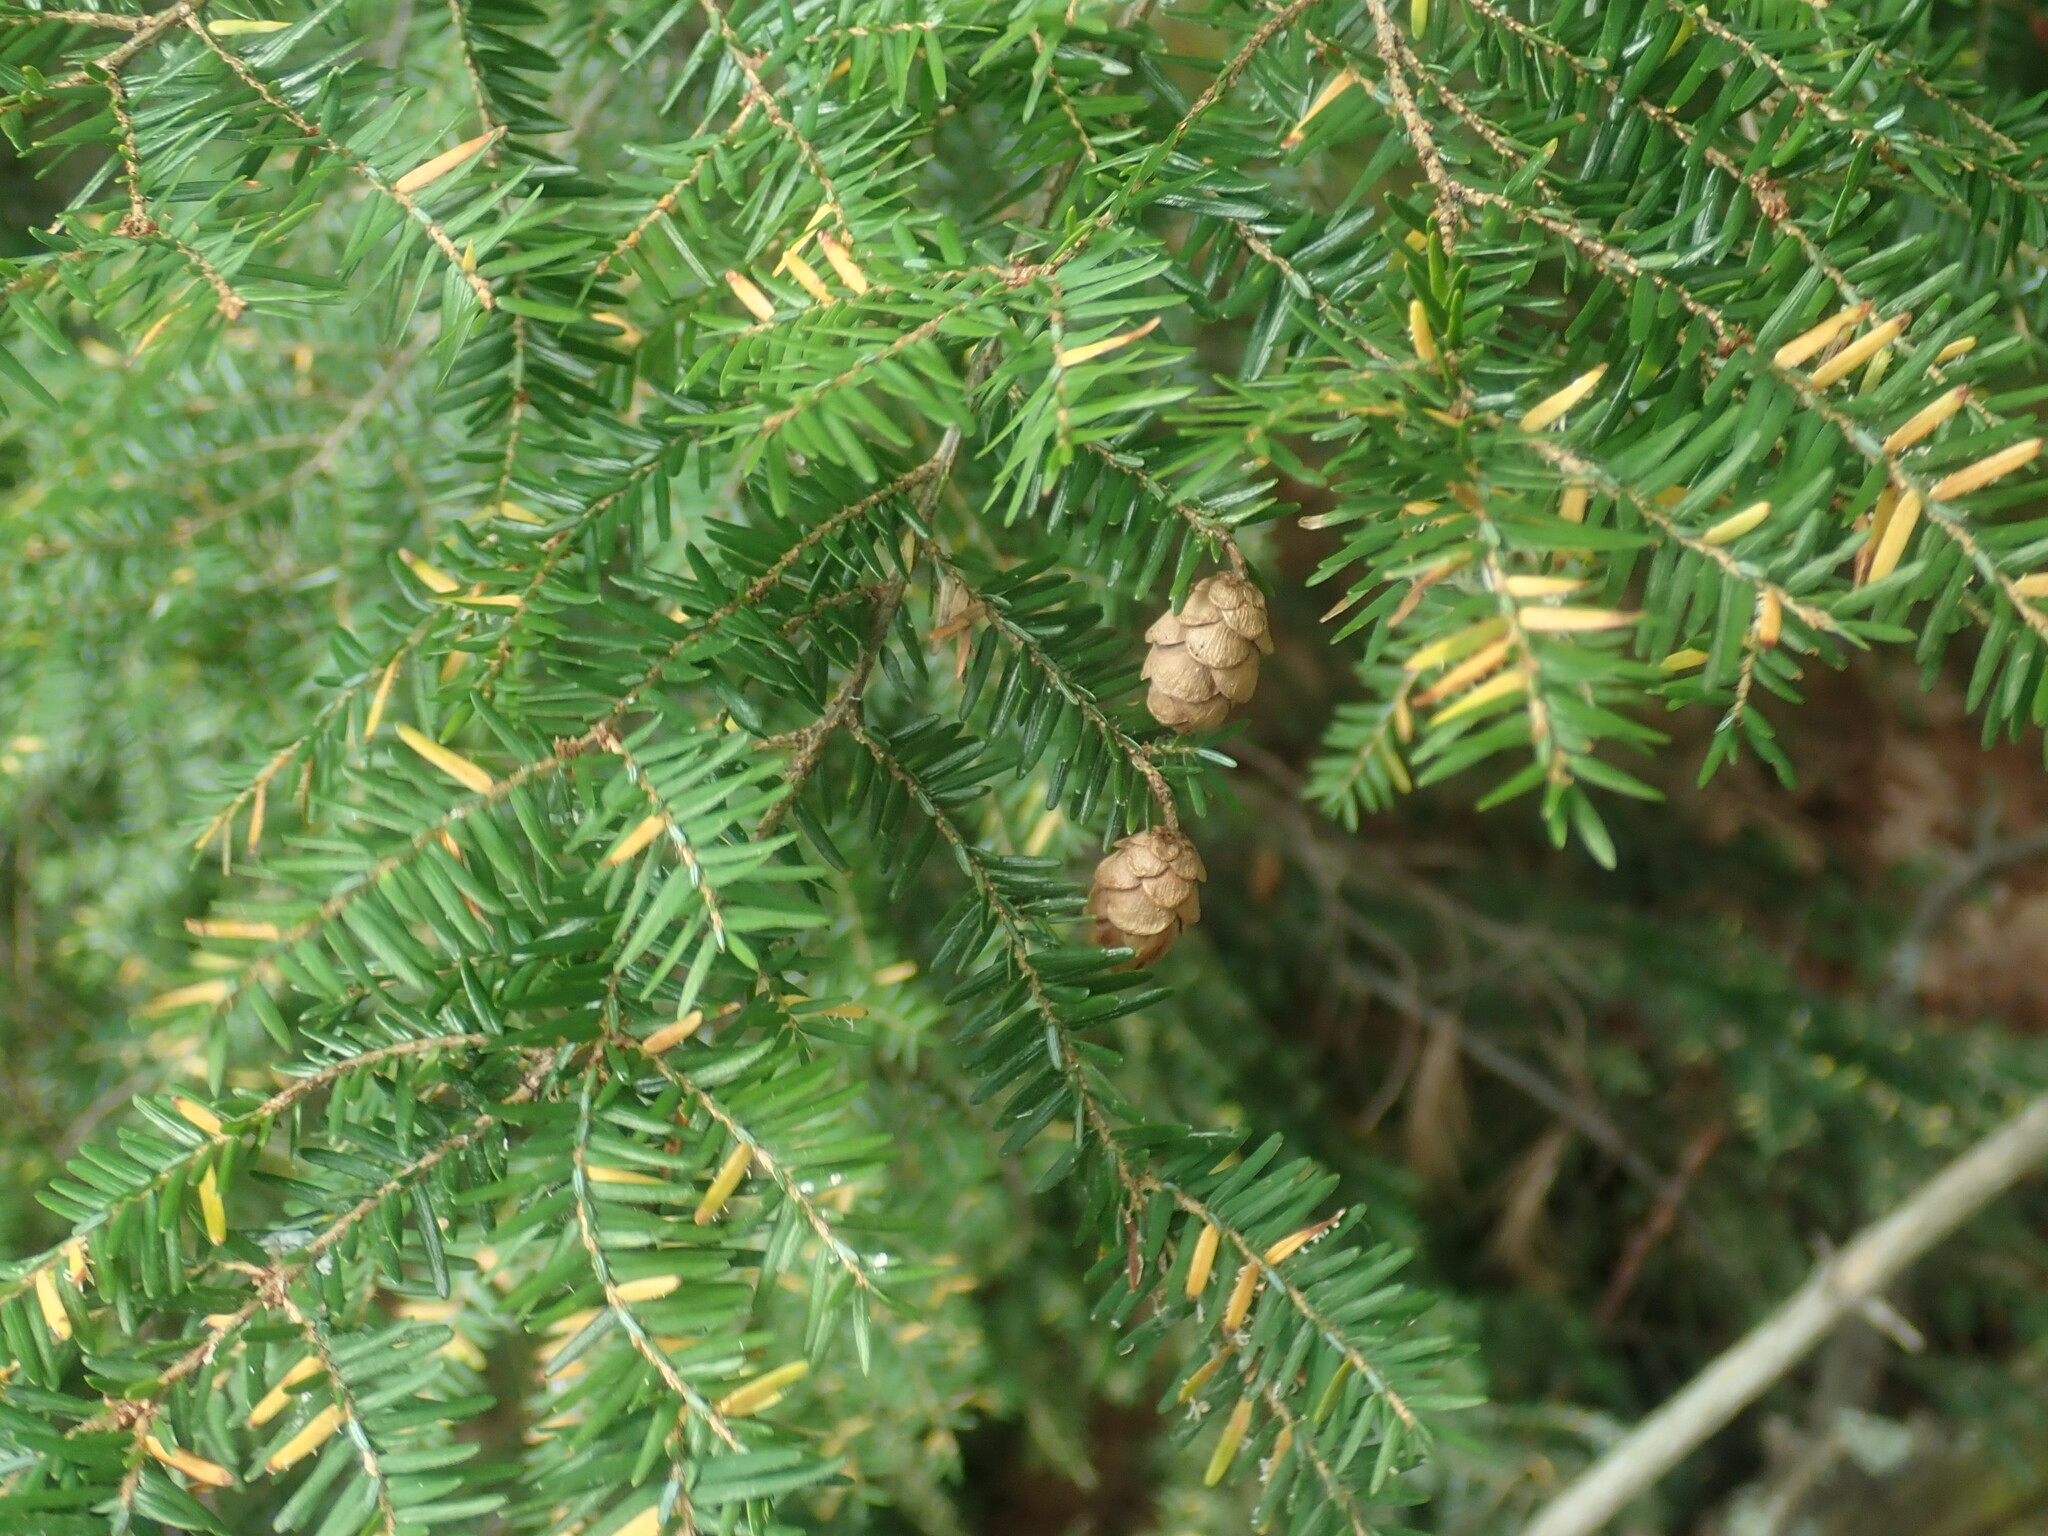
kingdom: Plantae
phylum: Tracheophyta
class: Pinopsida
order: Pinales
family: Pinaceae
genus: Tsuga
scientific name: Tsuga canadensis
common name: Eastern hemlock
